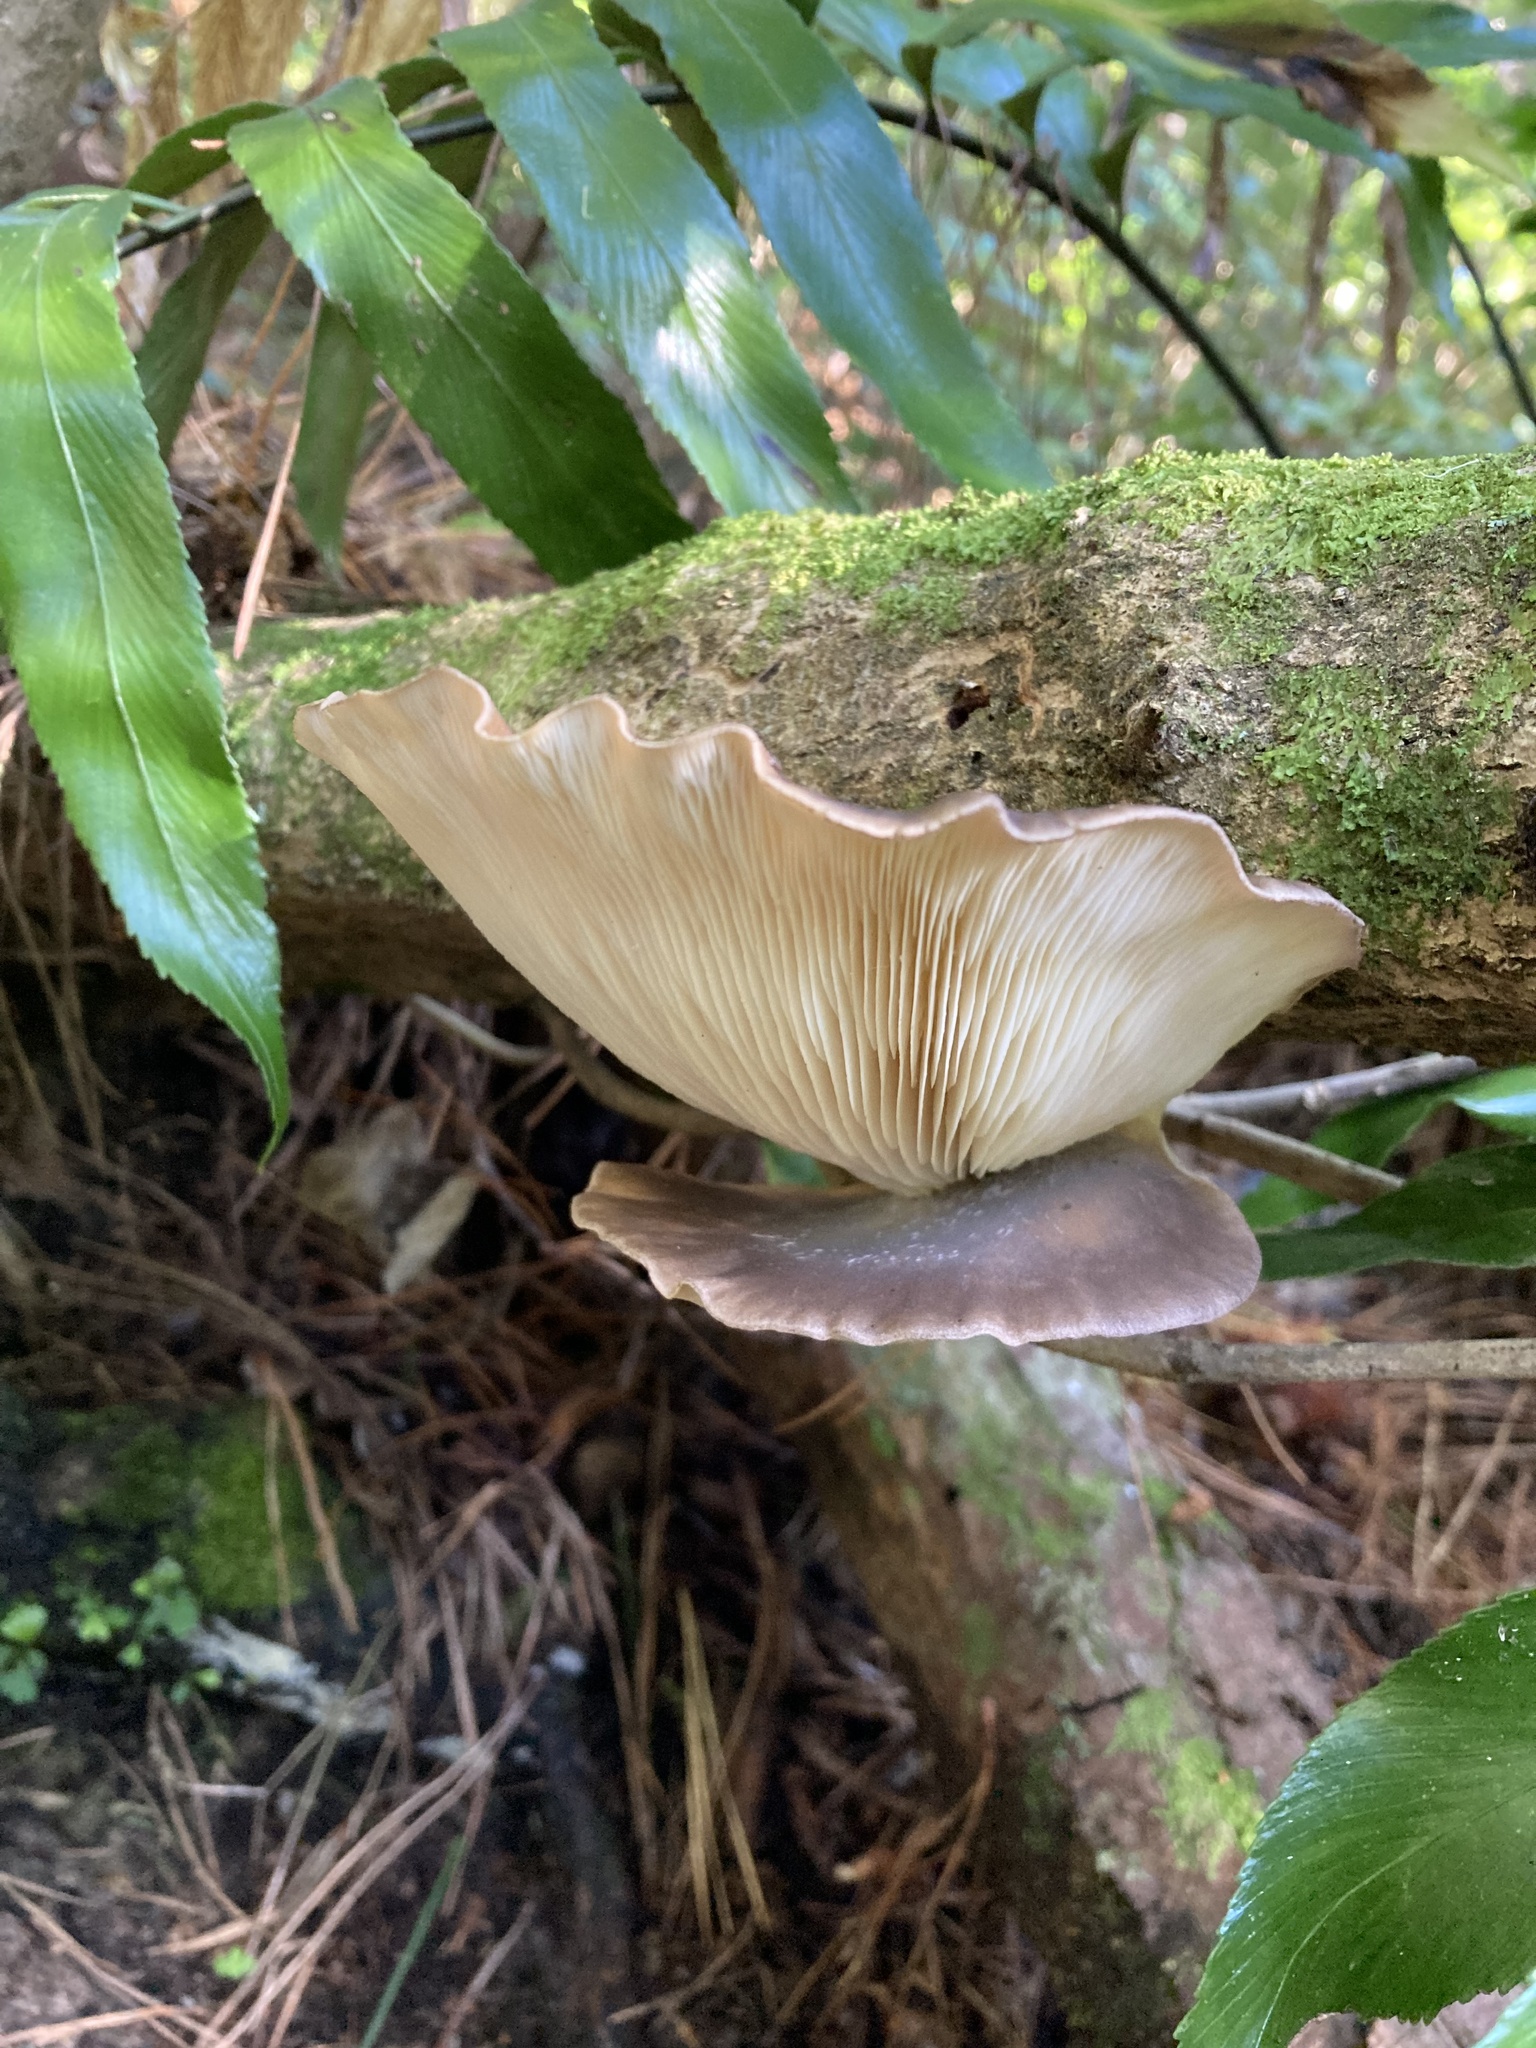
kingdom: Fungi
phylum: Basidiomycota
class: Agaricomycetes
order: Agaricales
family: Pleurotaceae
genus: Pleurotus
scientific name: Pleurotus australis
